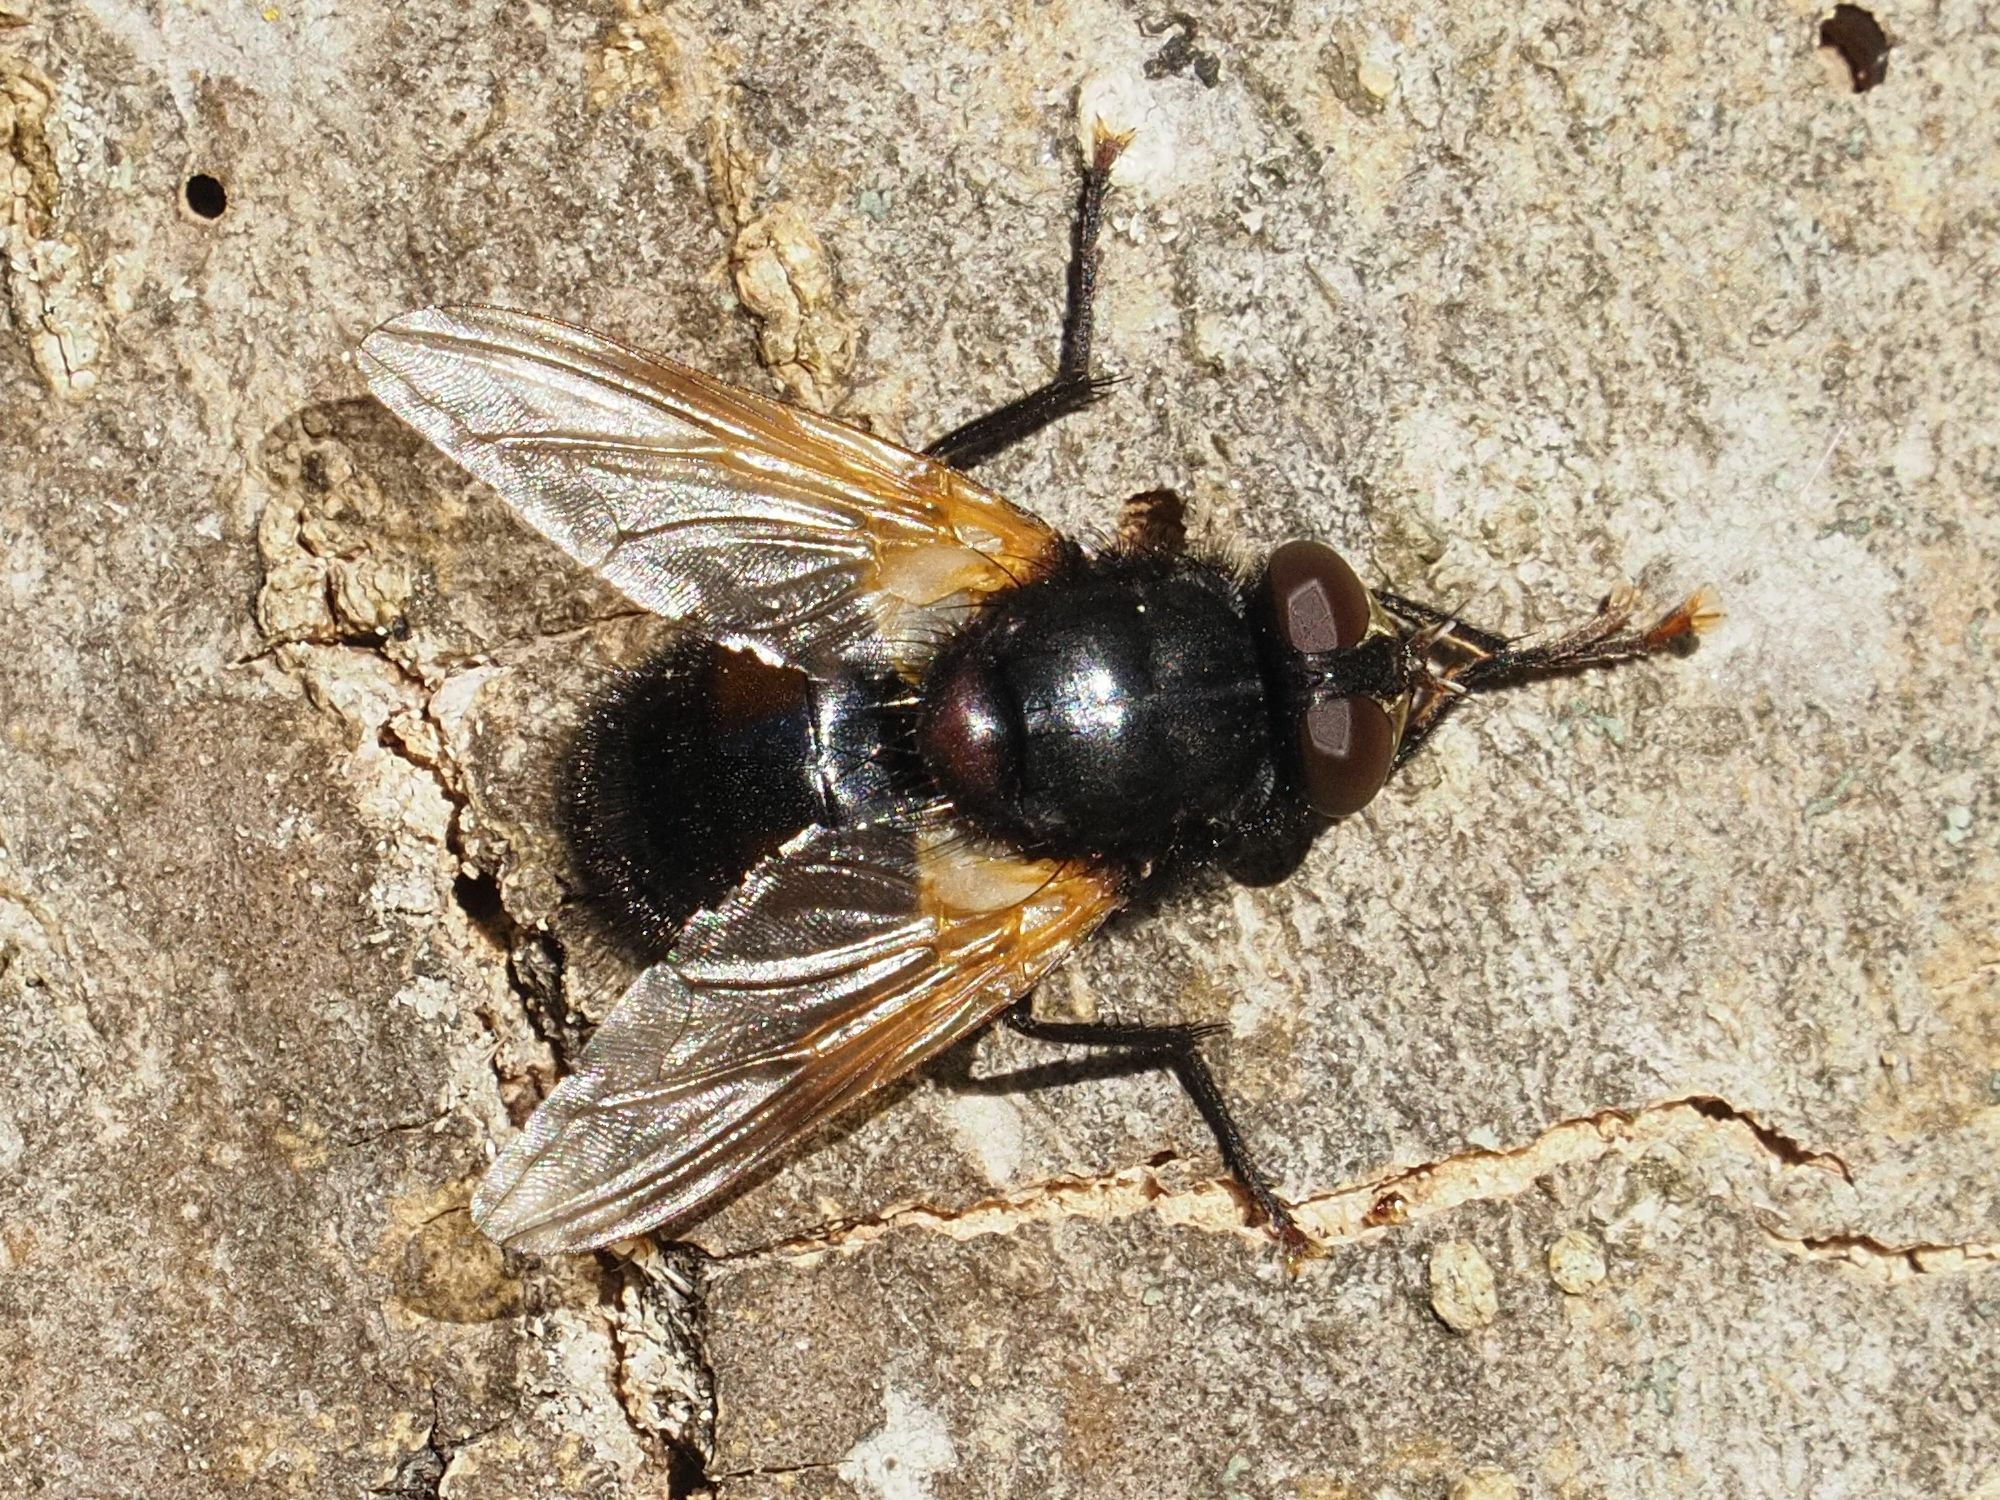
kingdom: Animalia
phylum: Arthropoda
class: Insecta
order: Diptera
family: Muscidae
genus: Mesembrina
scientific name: Mesembrina meridiana
